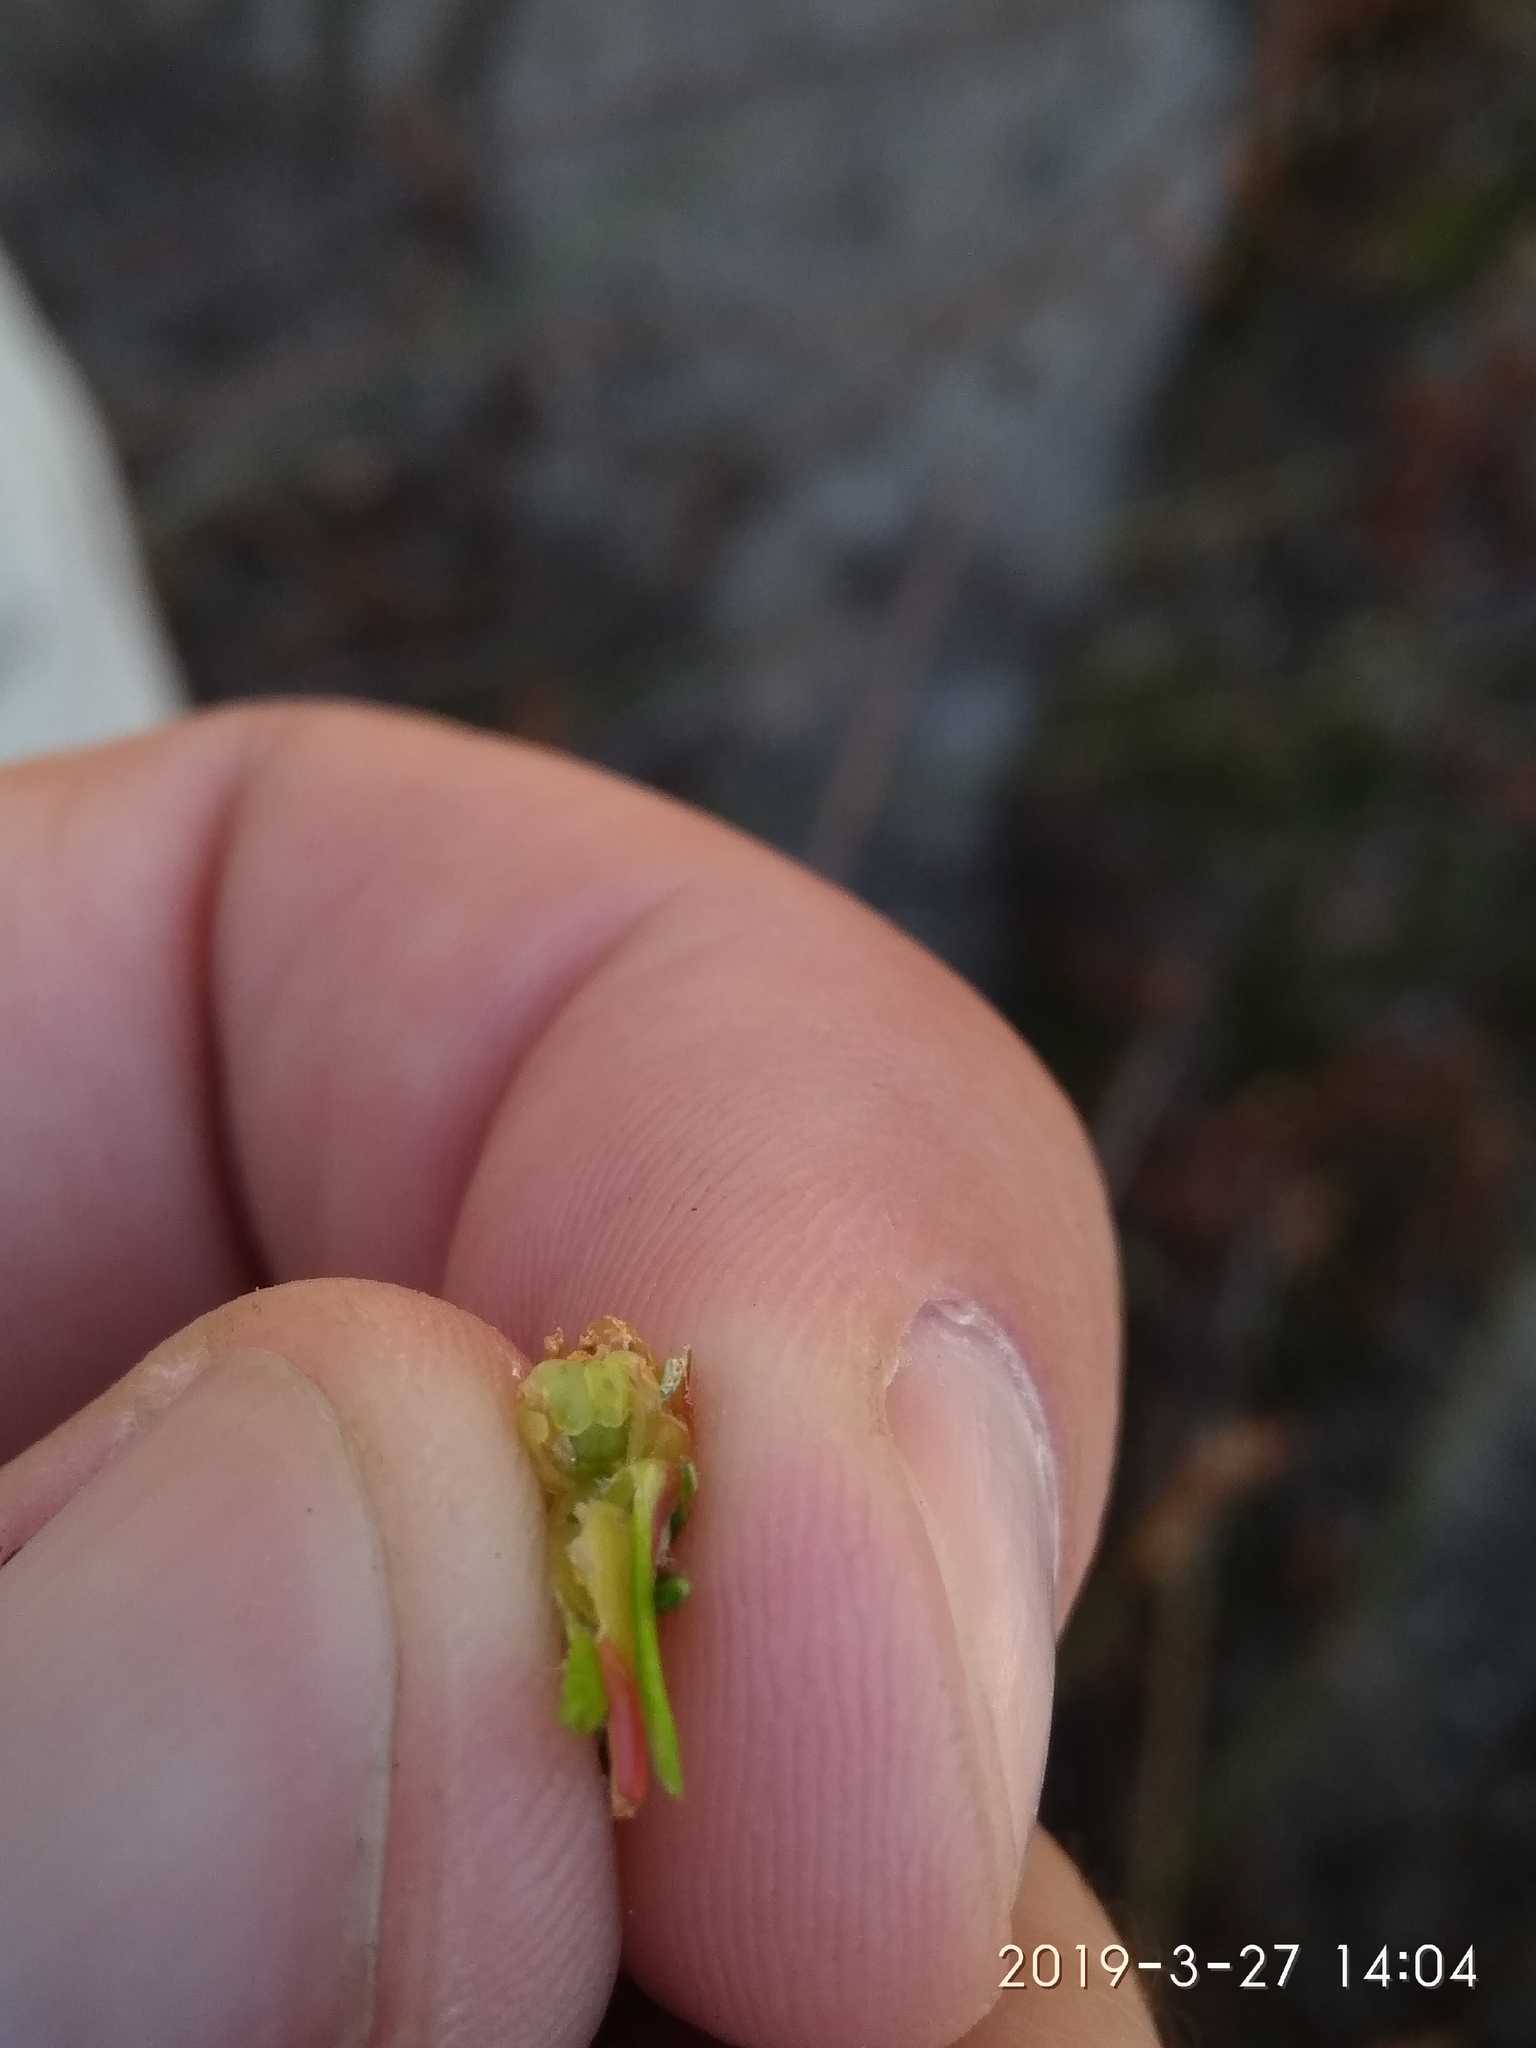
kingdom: Plantae
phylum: Tracheophyta
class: Magnoliopsida
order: Ericales
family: Ericaceae
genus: Erica
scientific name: Erica curviflora
